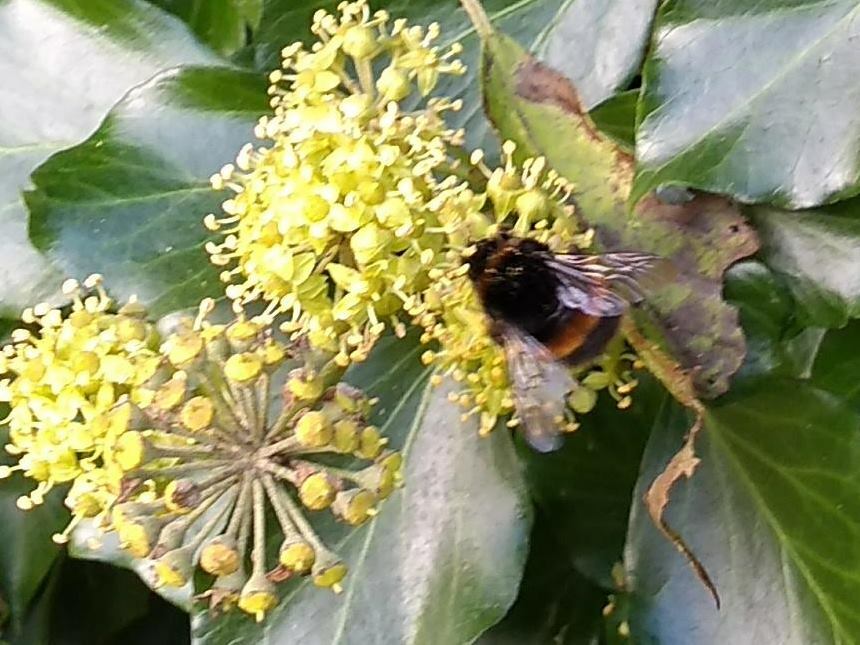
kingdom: Animalia
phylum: Arthropoda
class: Insecta
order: Hymenoptera
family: Apidae
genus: Bombus
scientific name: Bombus terrestris
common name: Buff-tailed bumblebee
